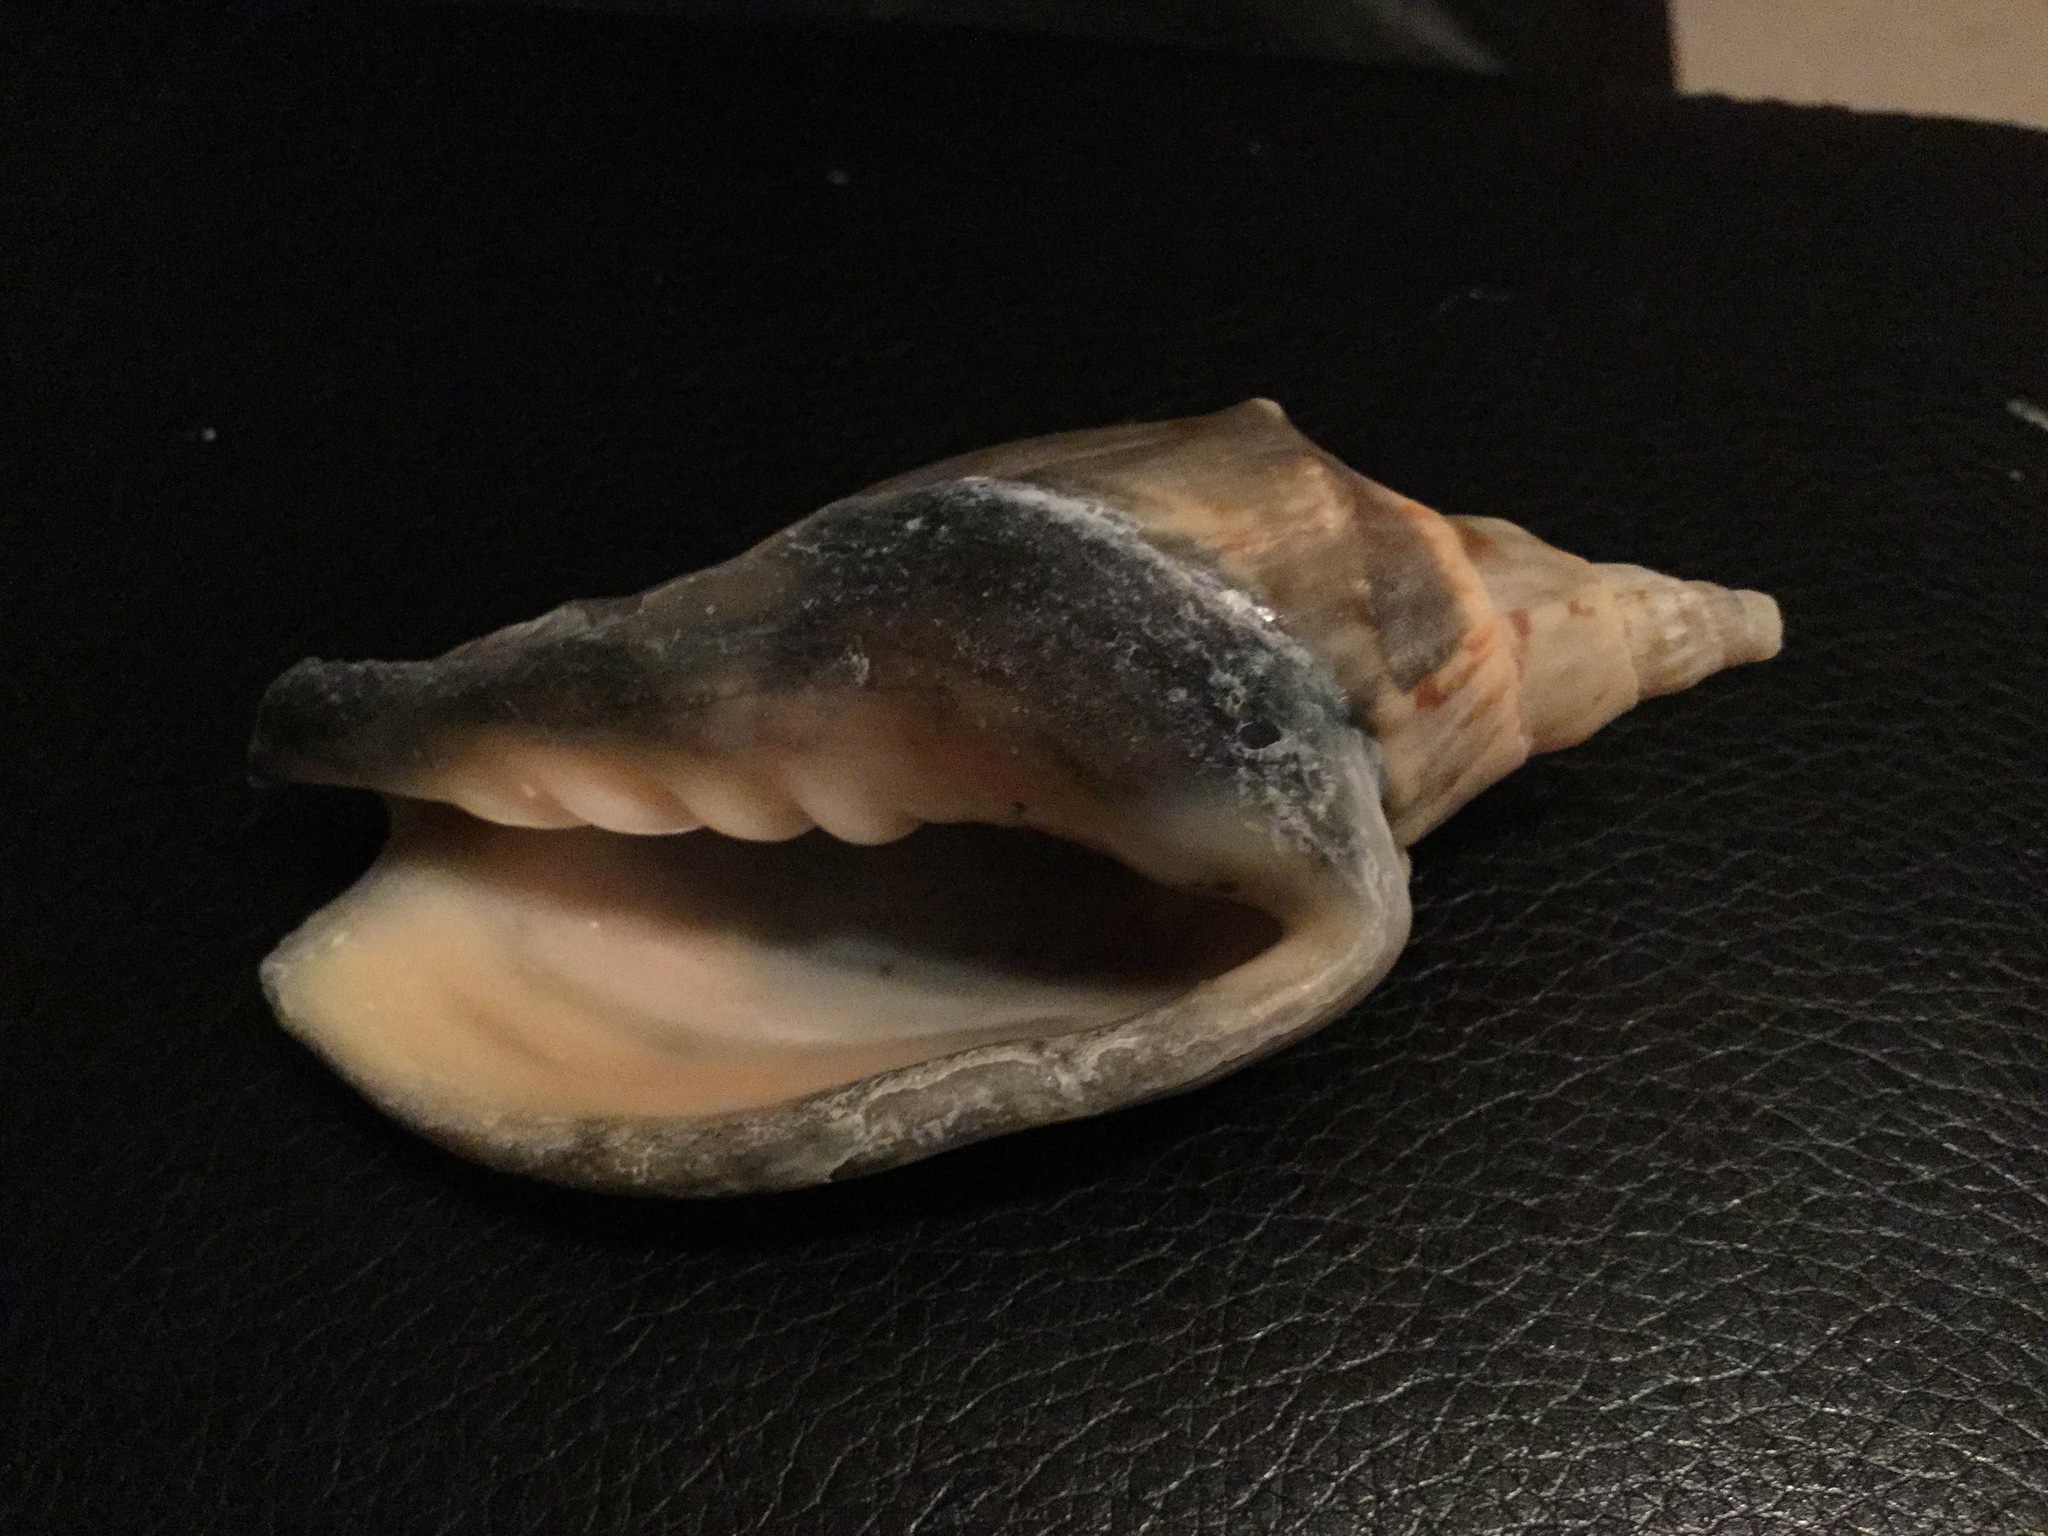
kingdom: Animalia
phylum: Mollusca
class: Gastropoda
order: Neogastropoda
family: Volutidae
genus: Alcithoe
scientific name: Alcithoe arabica
